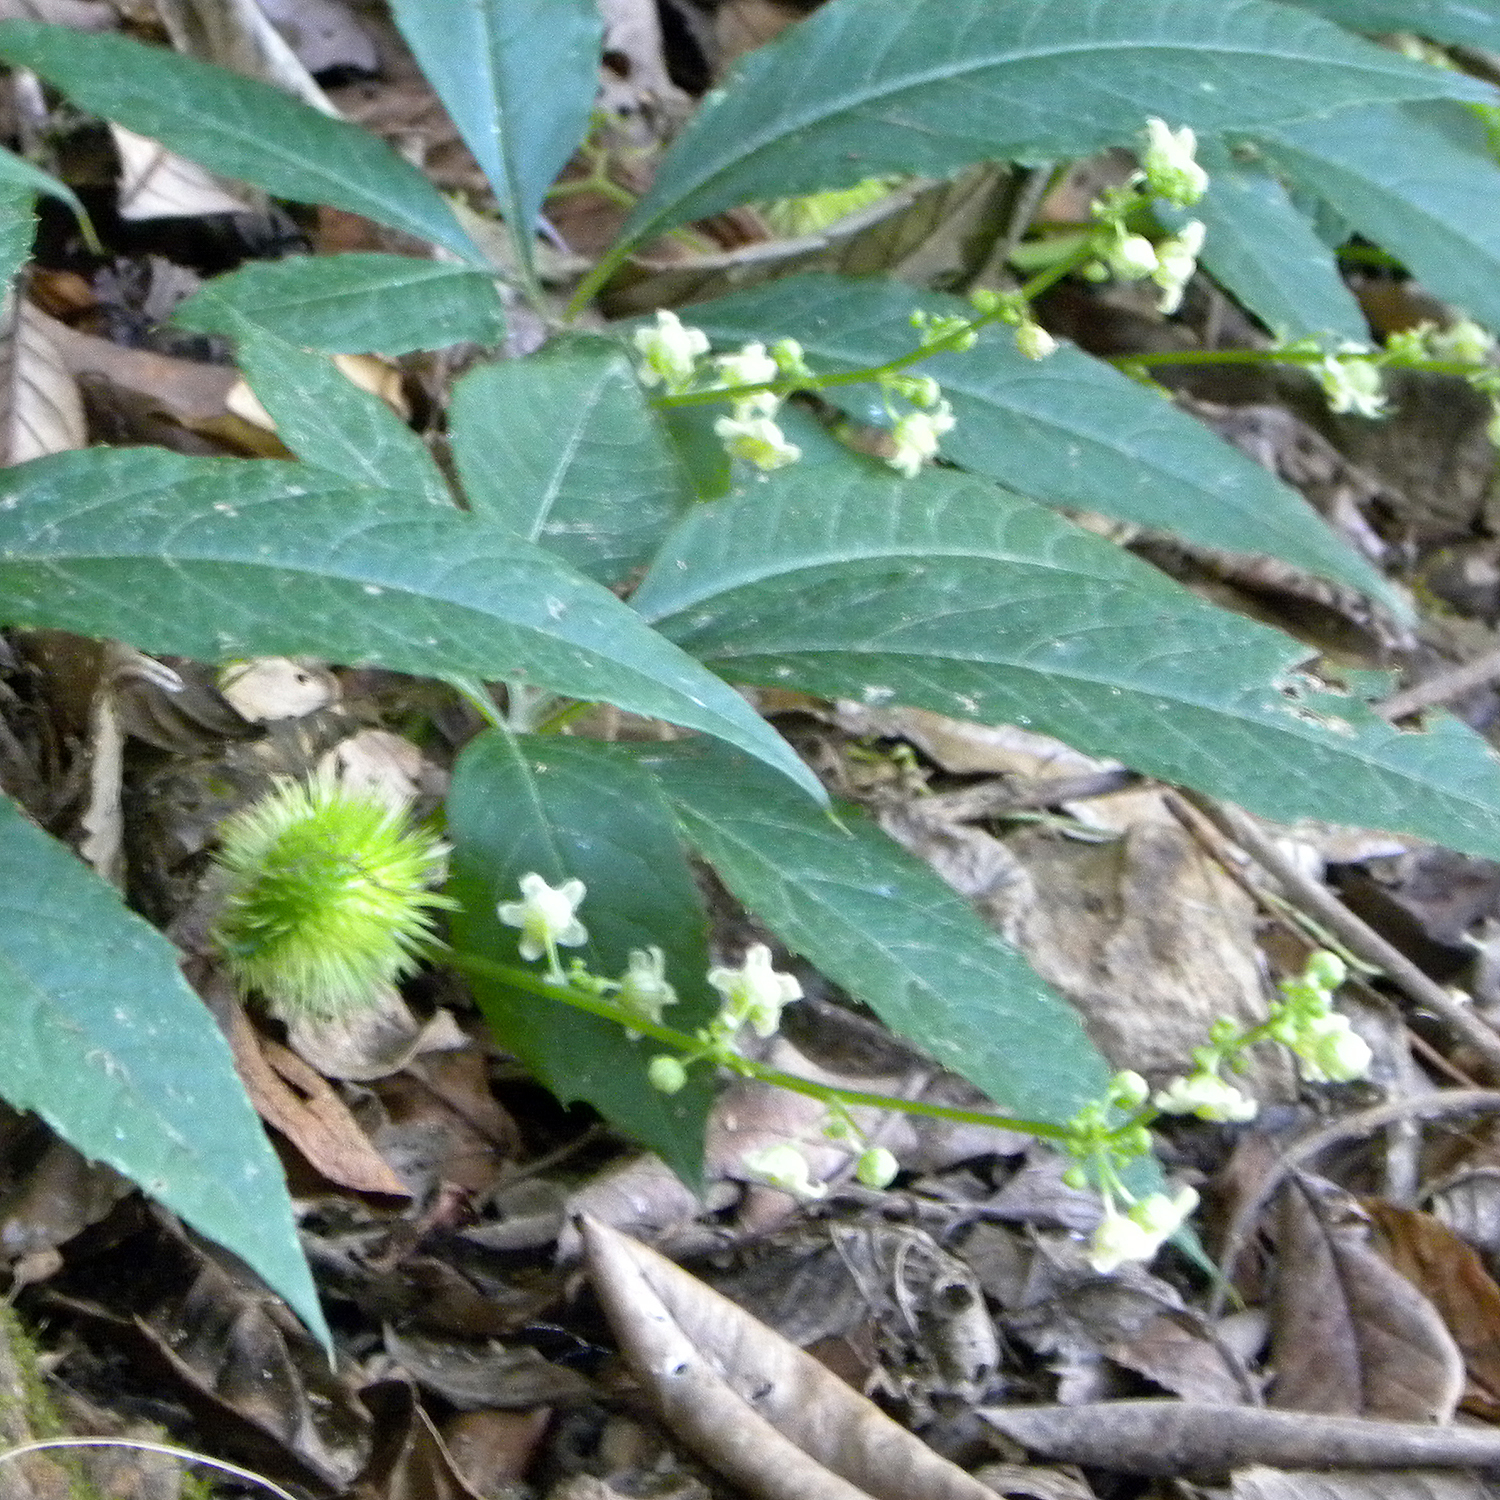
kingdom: Plantae
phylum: Tracheophyta
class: Magnoliopsida
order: Cucurbitales
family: Cucurbitaceae
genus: Cyclanthera
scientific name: Cyclanthera langaei
